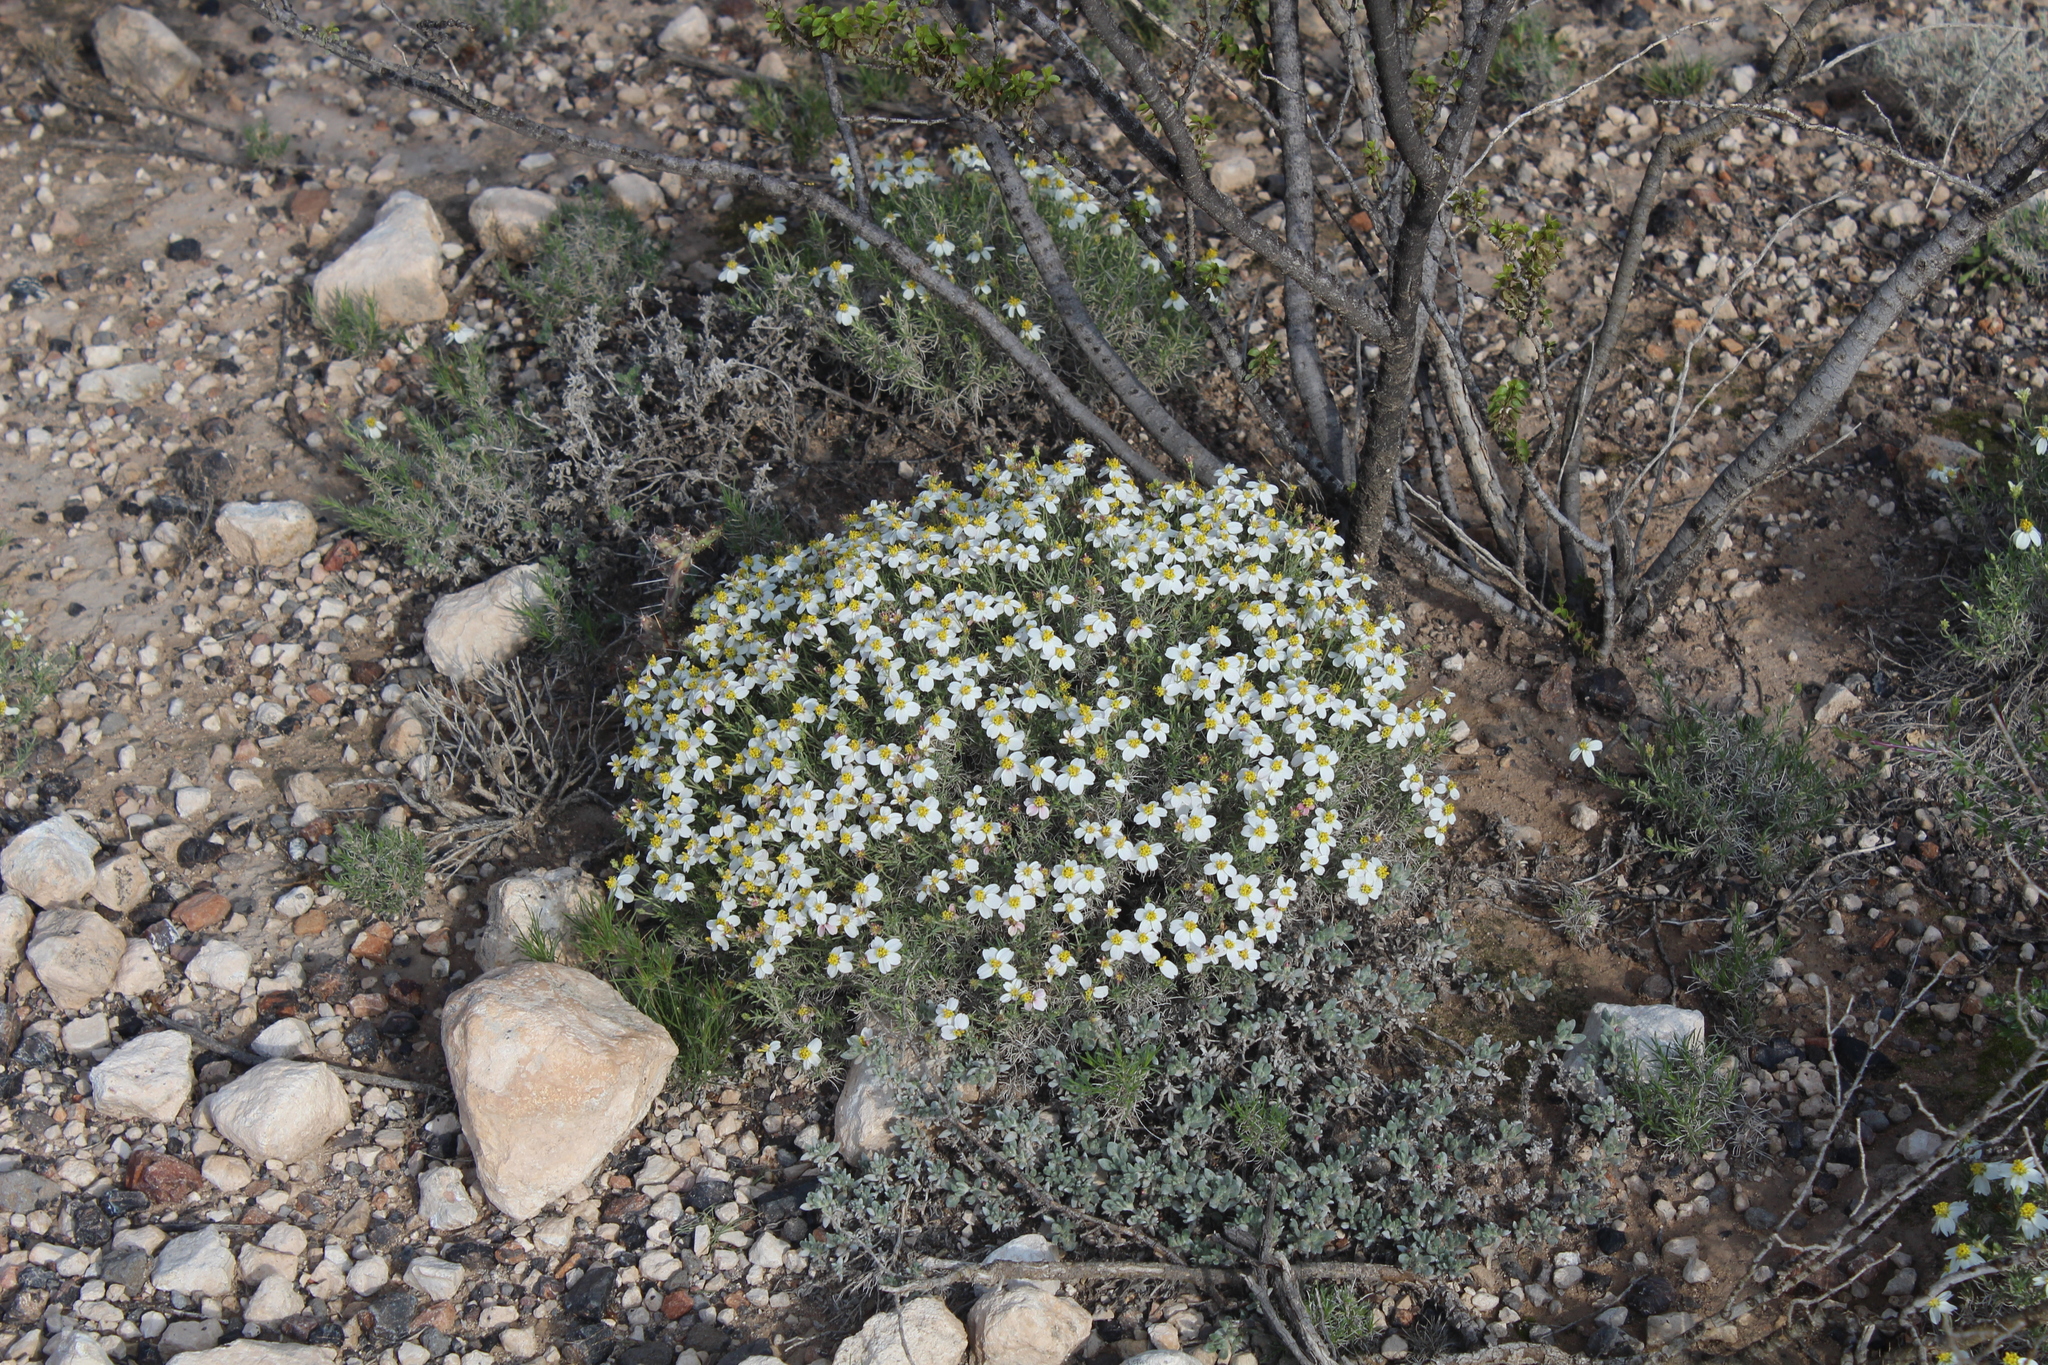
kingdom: Plantae
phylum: Tracheophyta
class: Magnoliopsida
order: Asterales
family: Asteraceae
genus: Zinnia
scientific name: Zinnia acerosa
